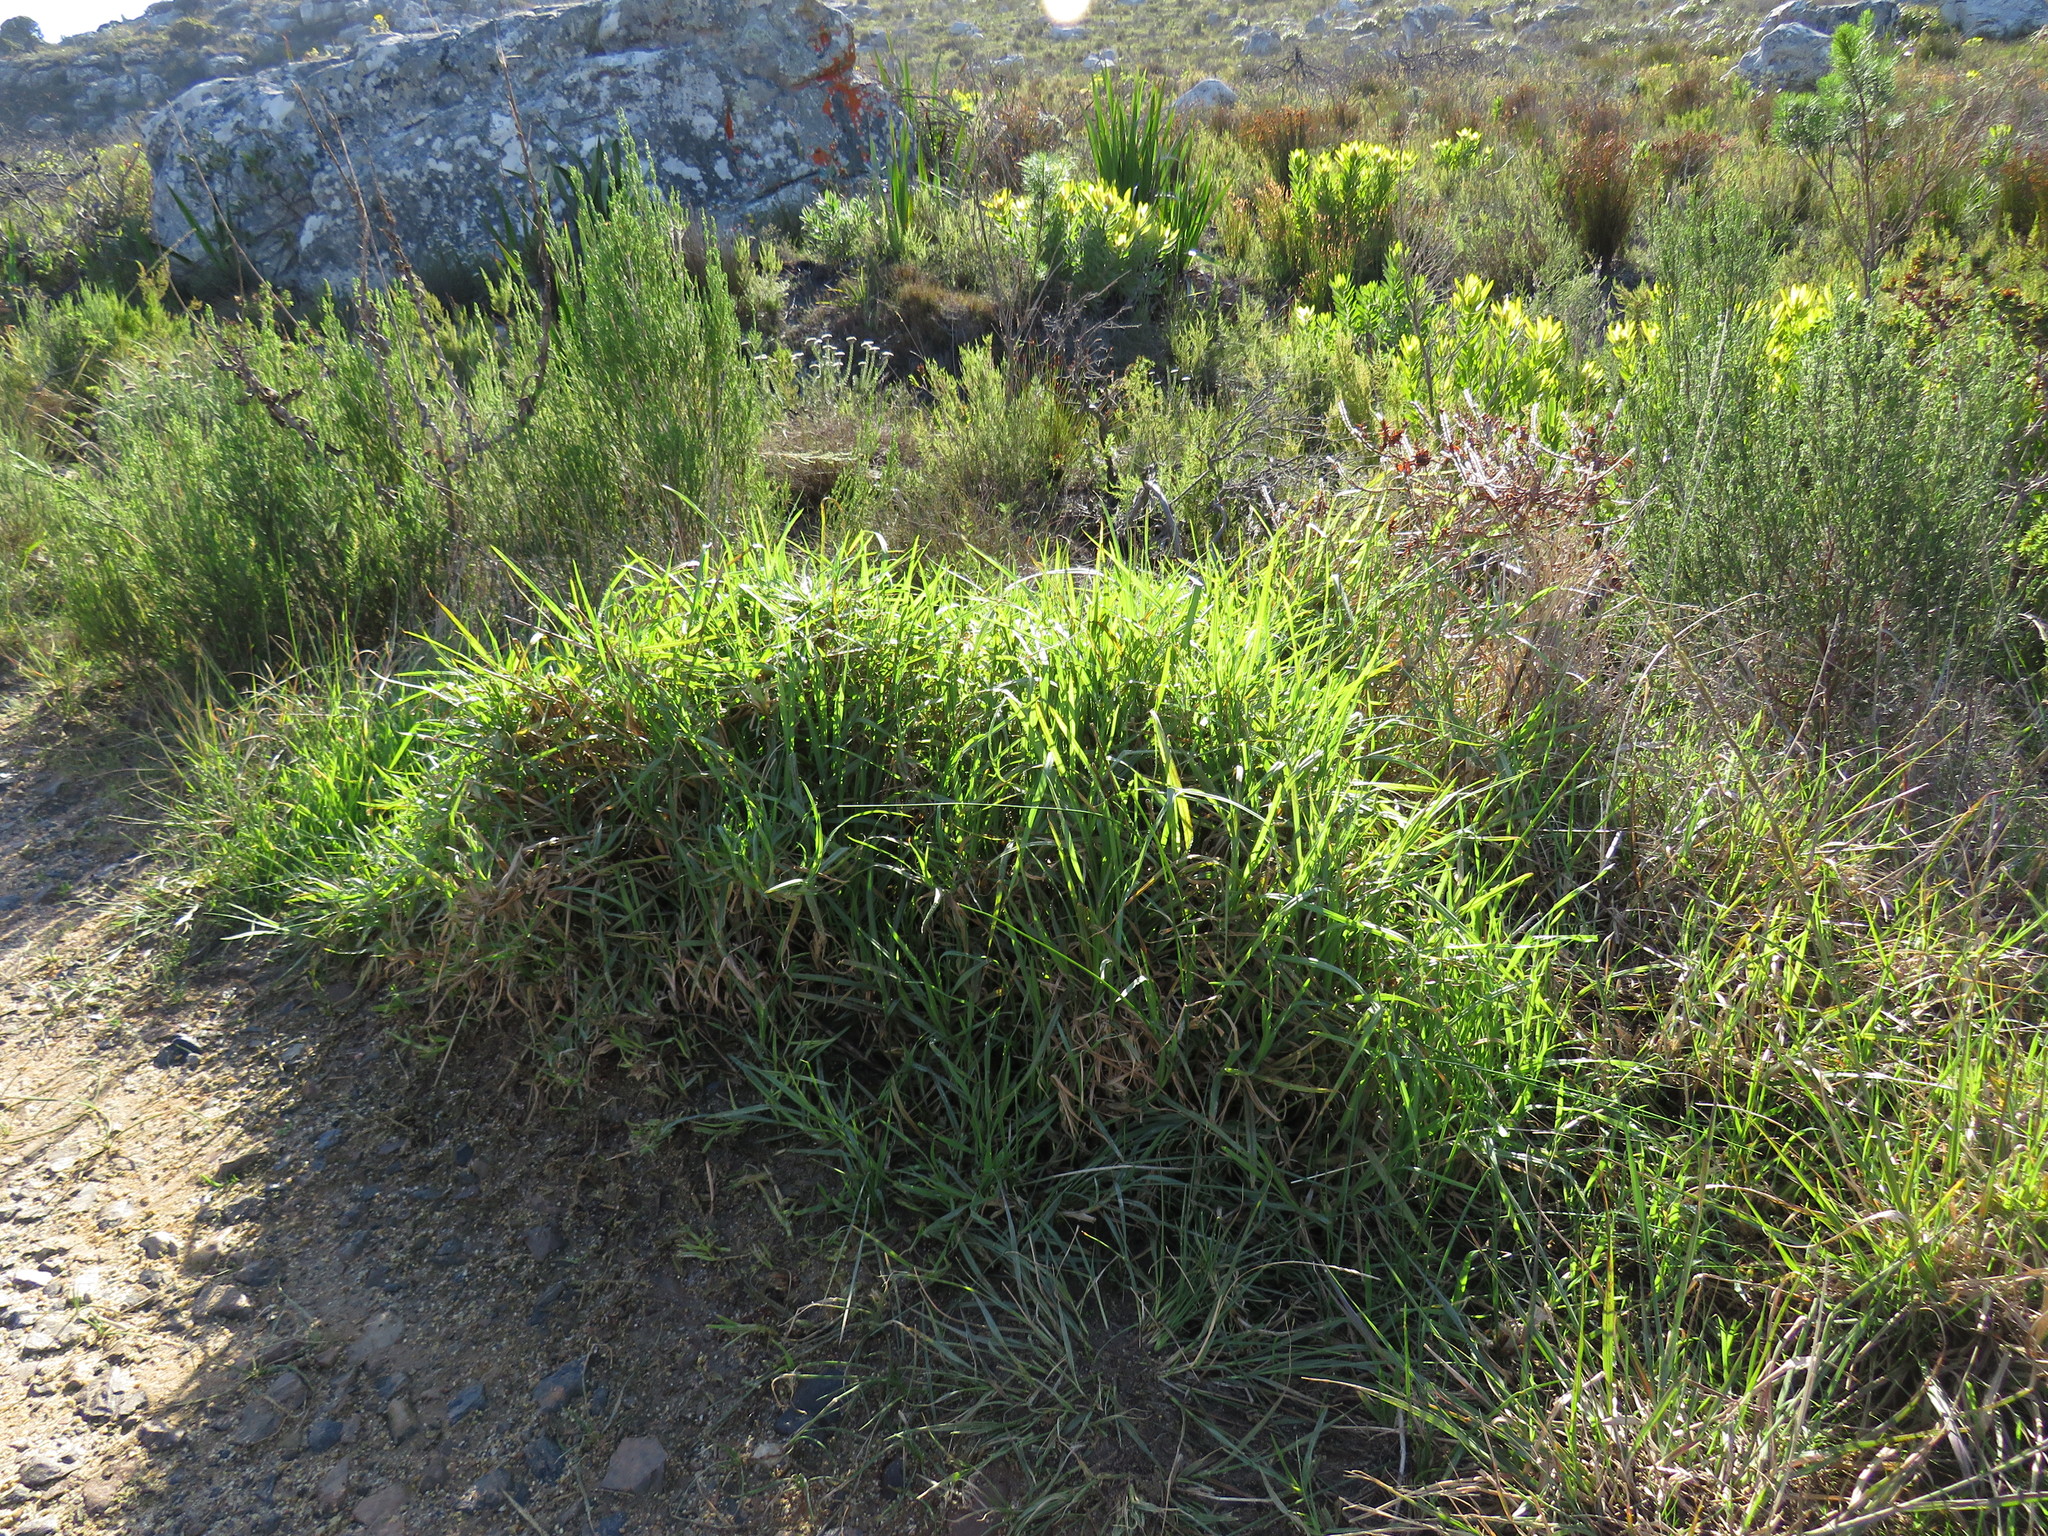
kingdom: Plantae
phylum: Tracheophyta
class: Liliopsida
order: Poales
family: Poaceae
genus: Cenchrus
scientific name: Cenchrus clandestinus
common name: Kikuyugrass
